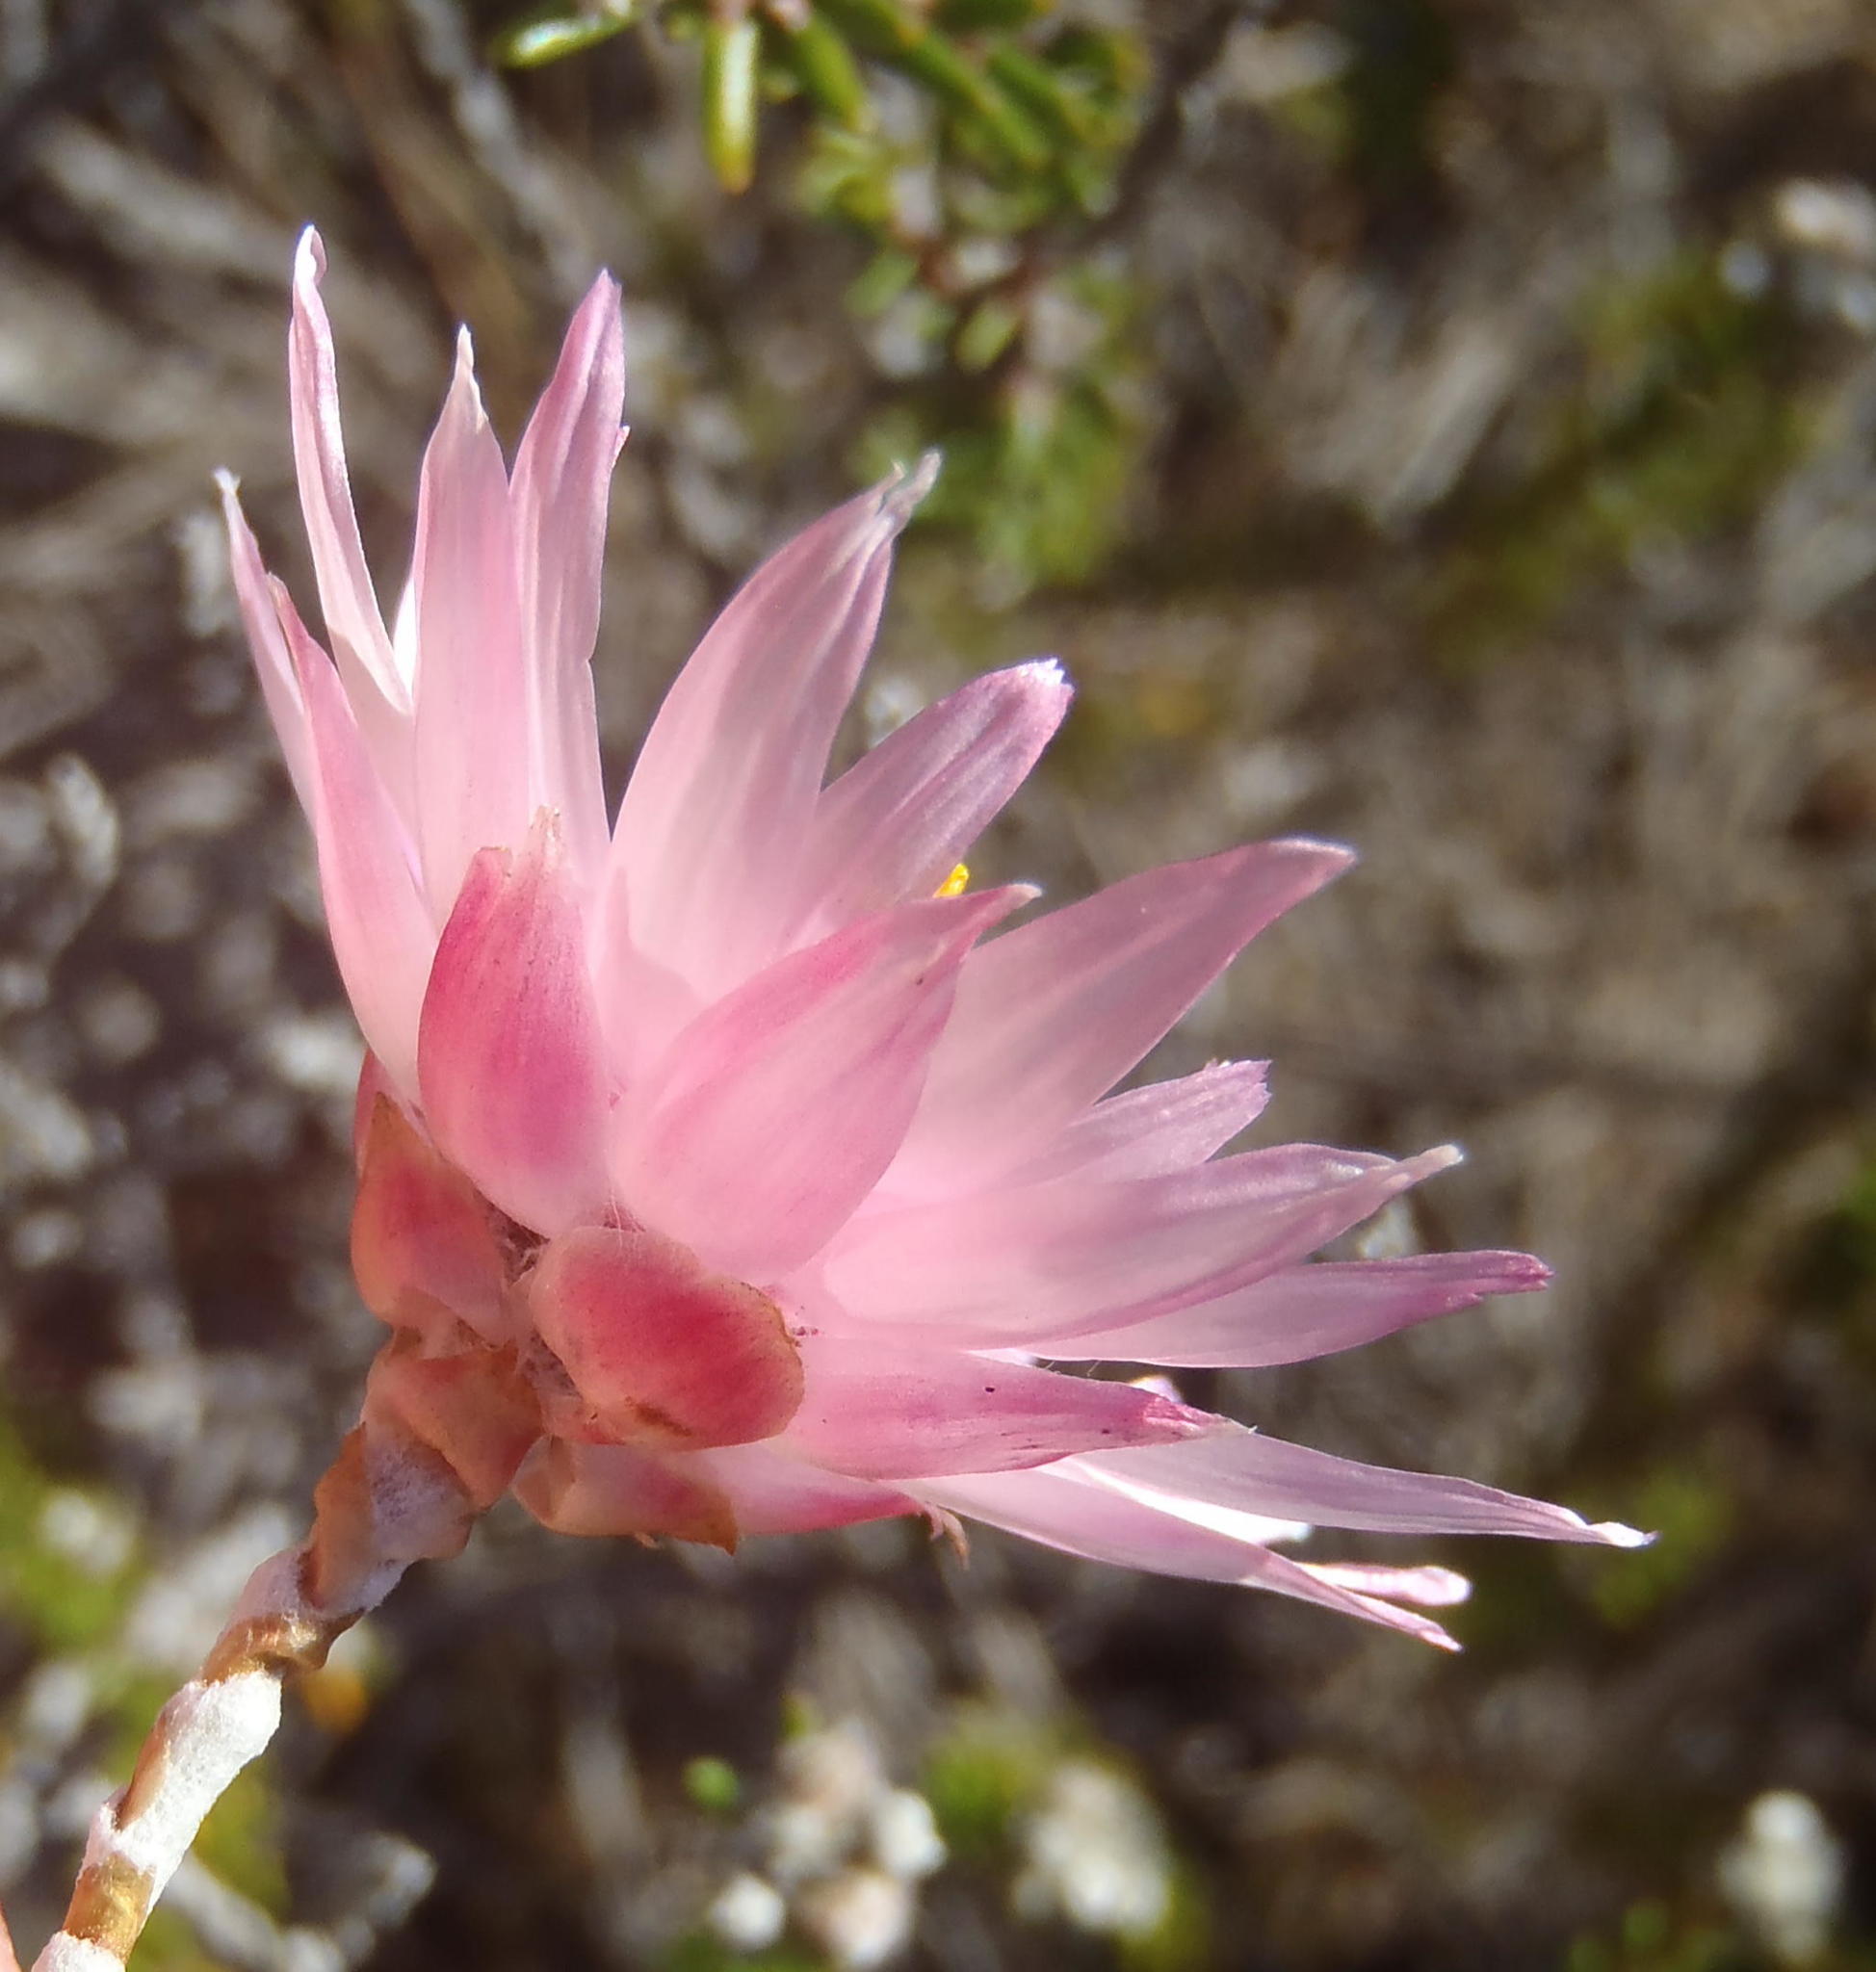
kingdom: Plantae
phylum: Tracheophyta
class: Magnoliopsida
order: Asterales
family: Asteraceae
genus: Syncarpha
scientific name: Syncarpha canescens
